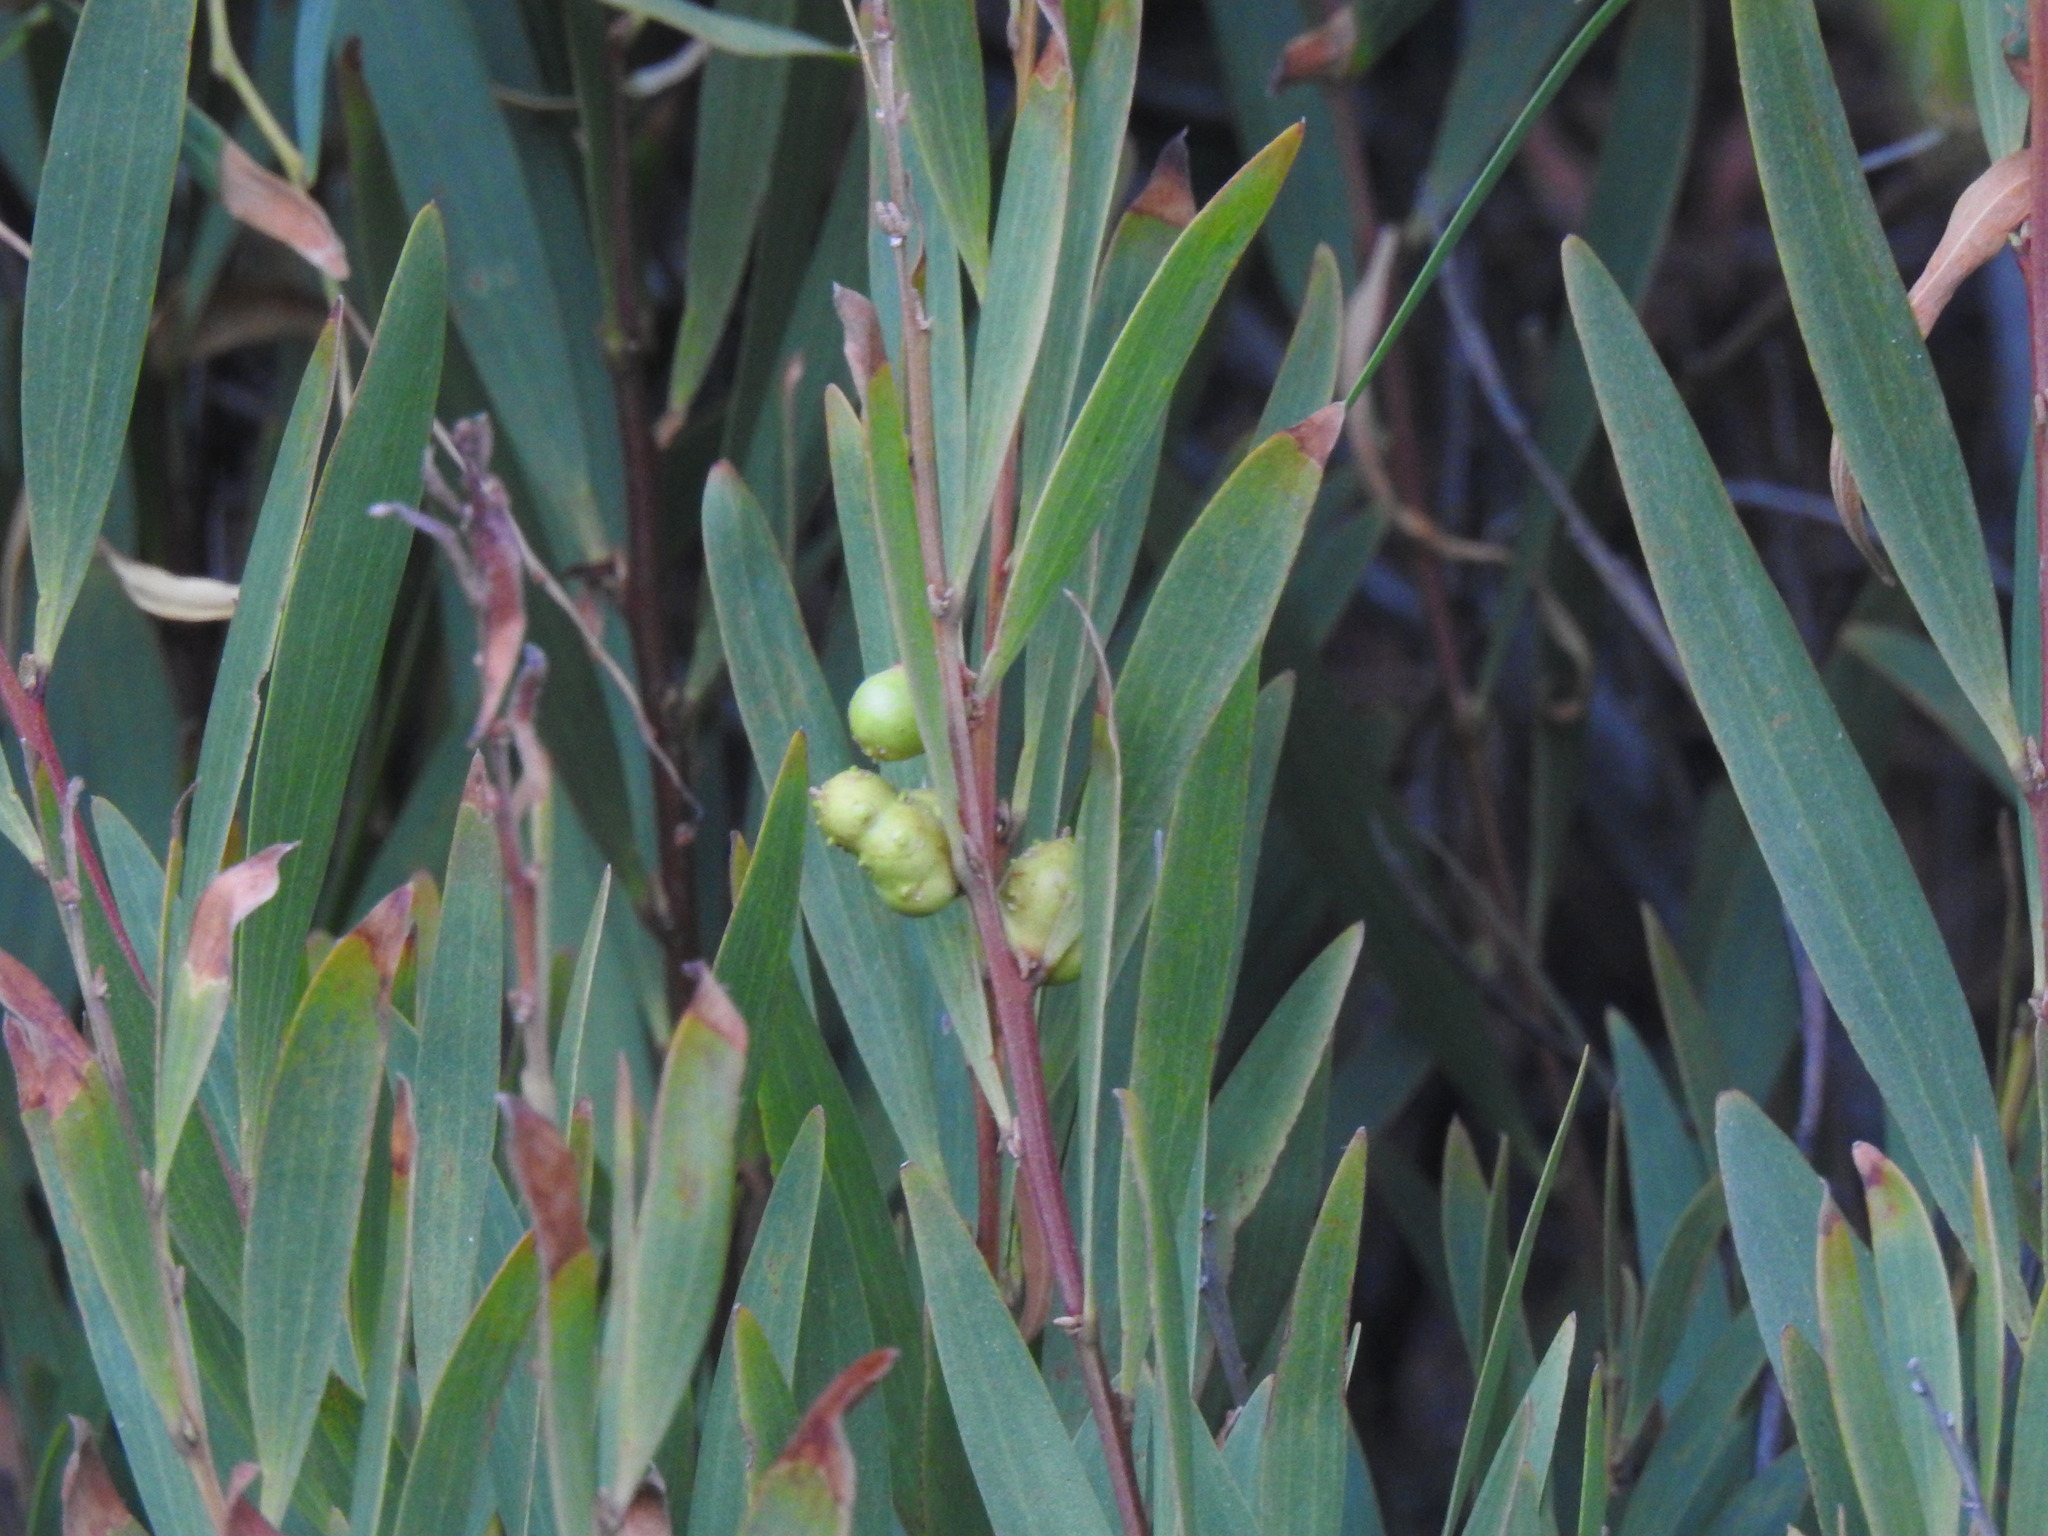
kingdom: Animalia
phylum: Arthropoda
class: Insecta
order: Hymenoptera
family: Pteromalidae
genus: Trichilogaster
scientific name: Trichilogaster acaciaelongifoliae
